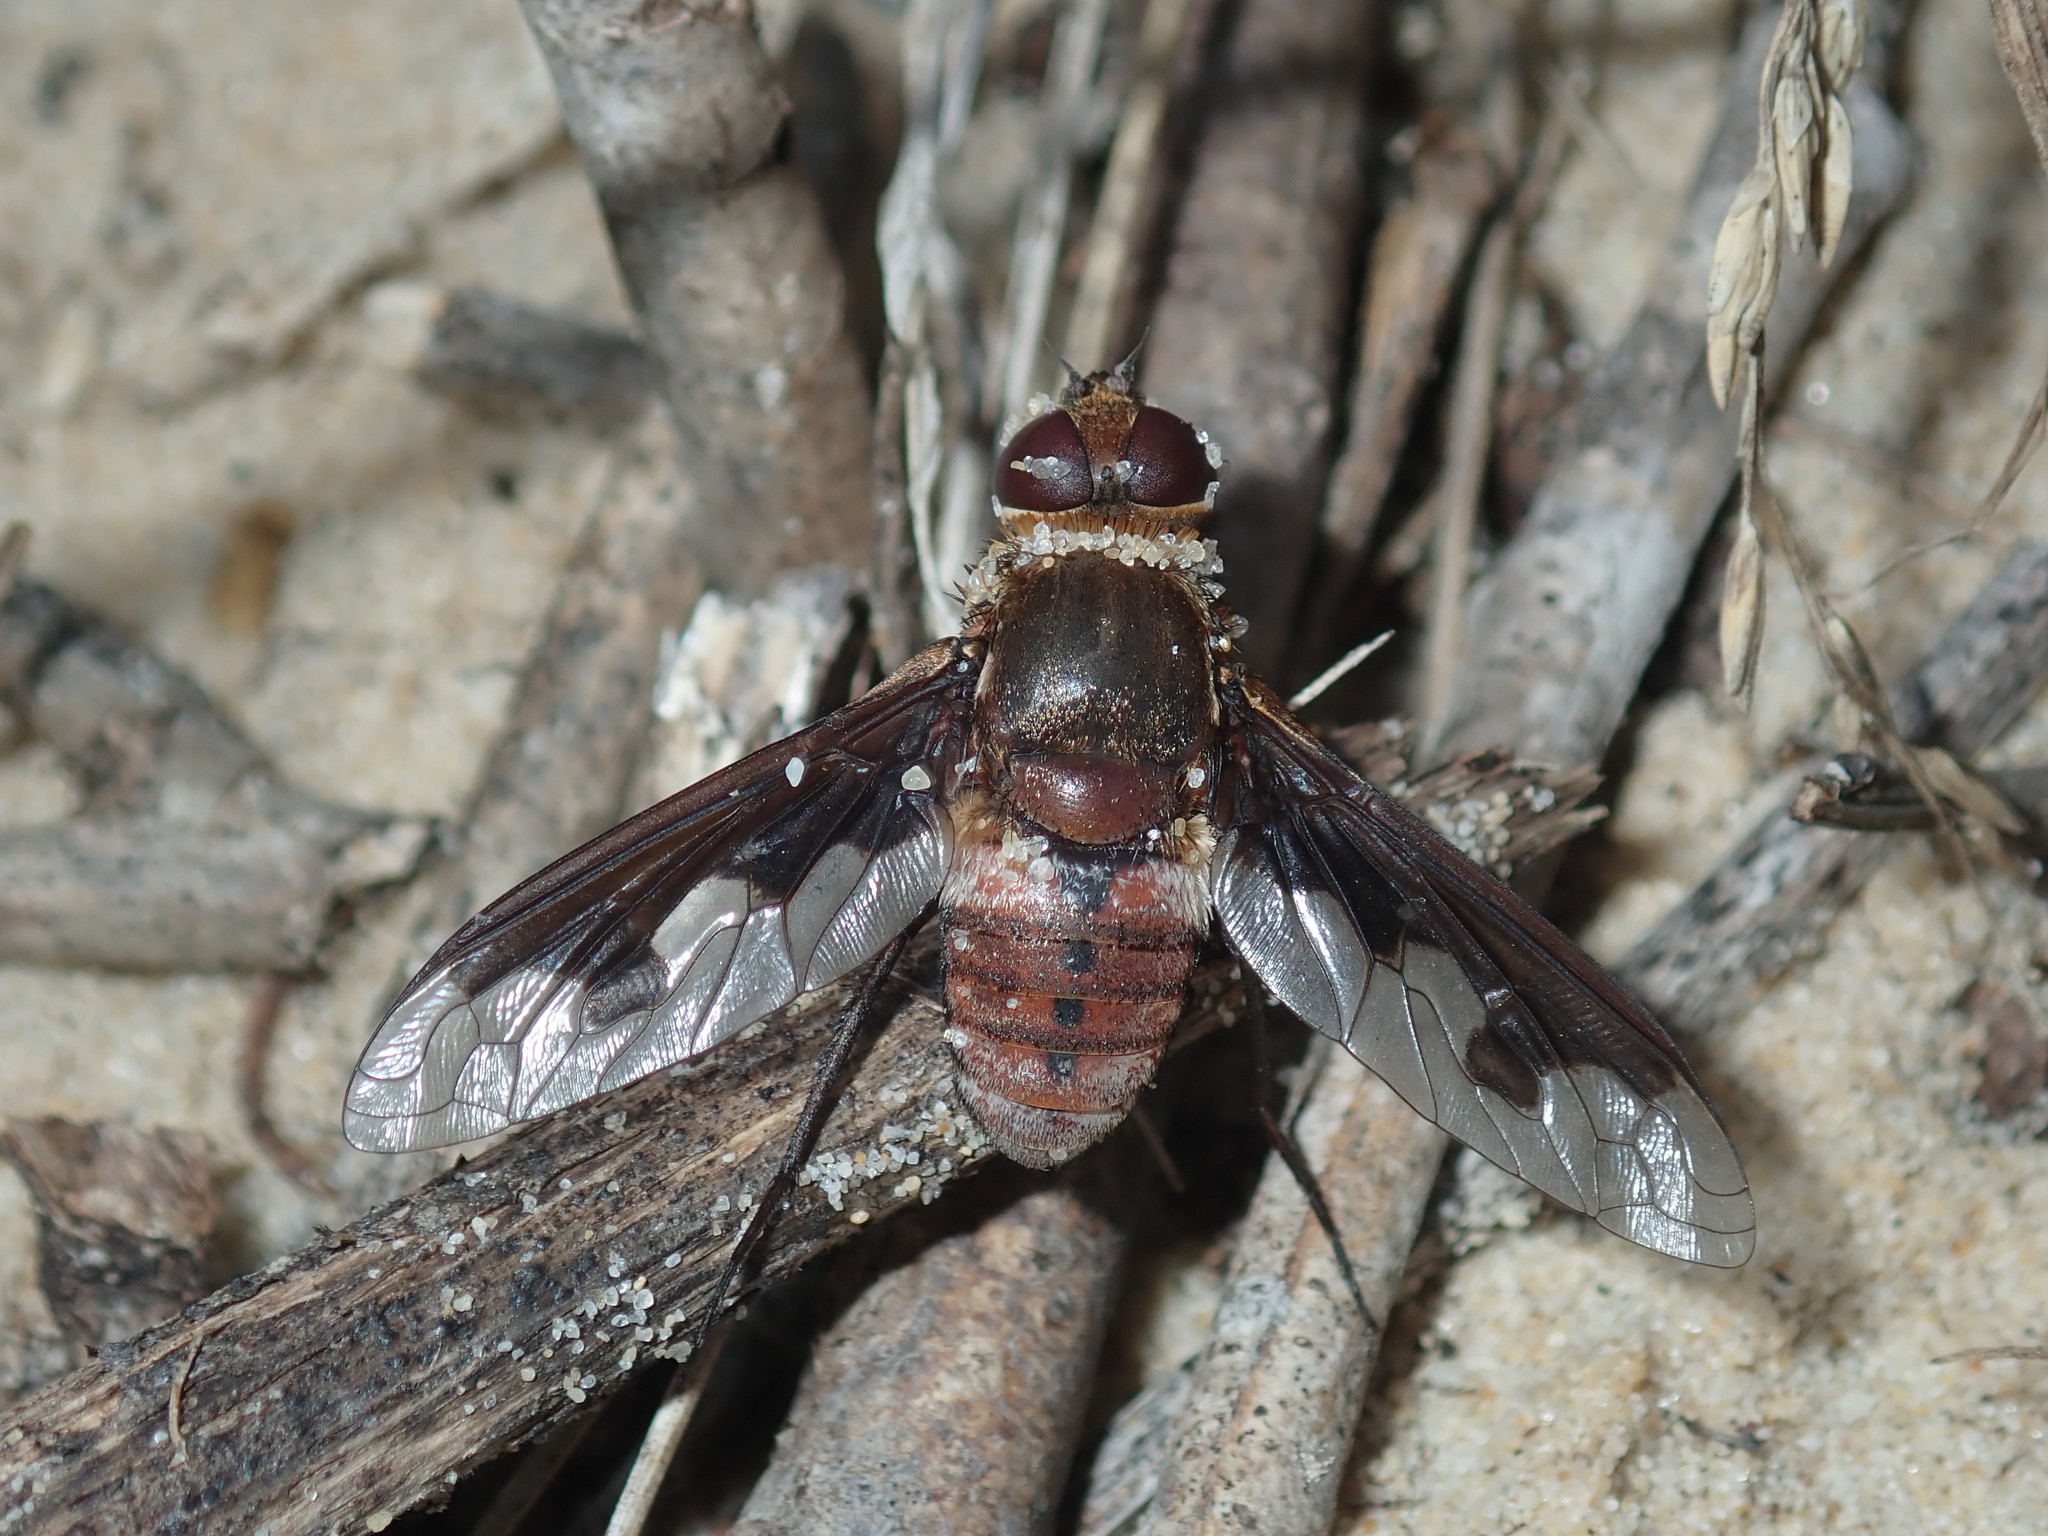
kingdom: Animalia
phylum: Arthropoda
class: Insecta
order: Diptera
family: Bombyliidae
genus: Ligyra
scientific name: Ligyra sinuatifascia
